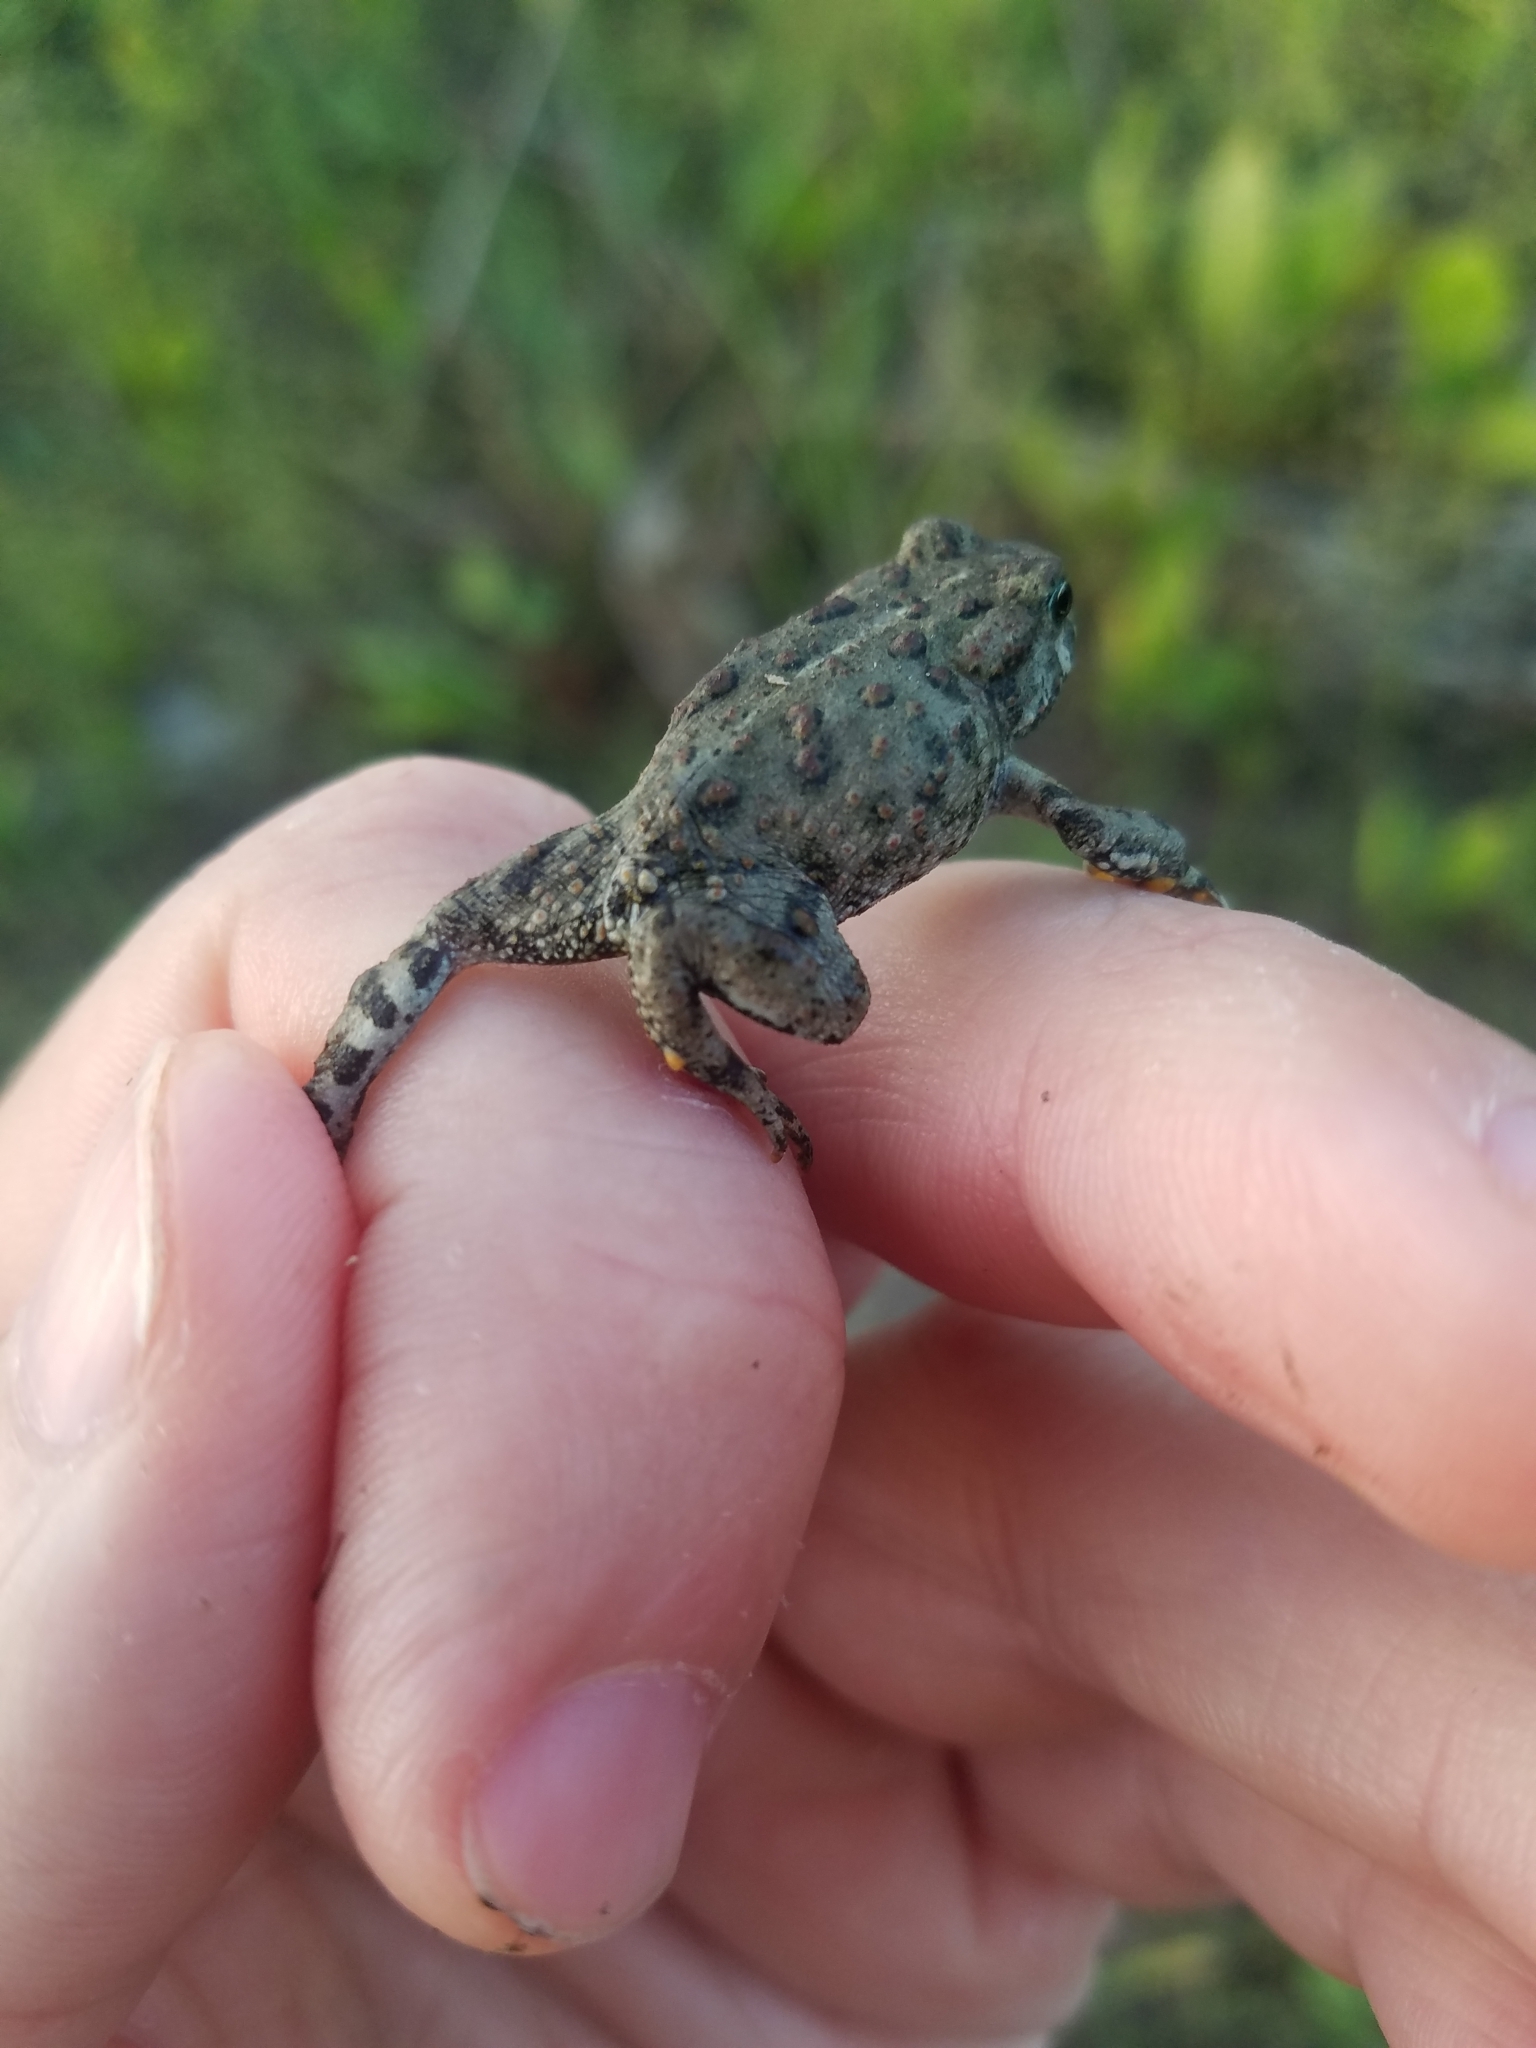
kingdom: Animalia
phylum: Chordata
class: Amphibia
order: Anura
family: Bufonidae
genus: Anaxyrus
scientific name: Anaxyrus boreas
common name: Western toad
